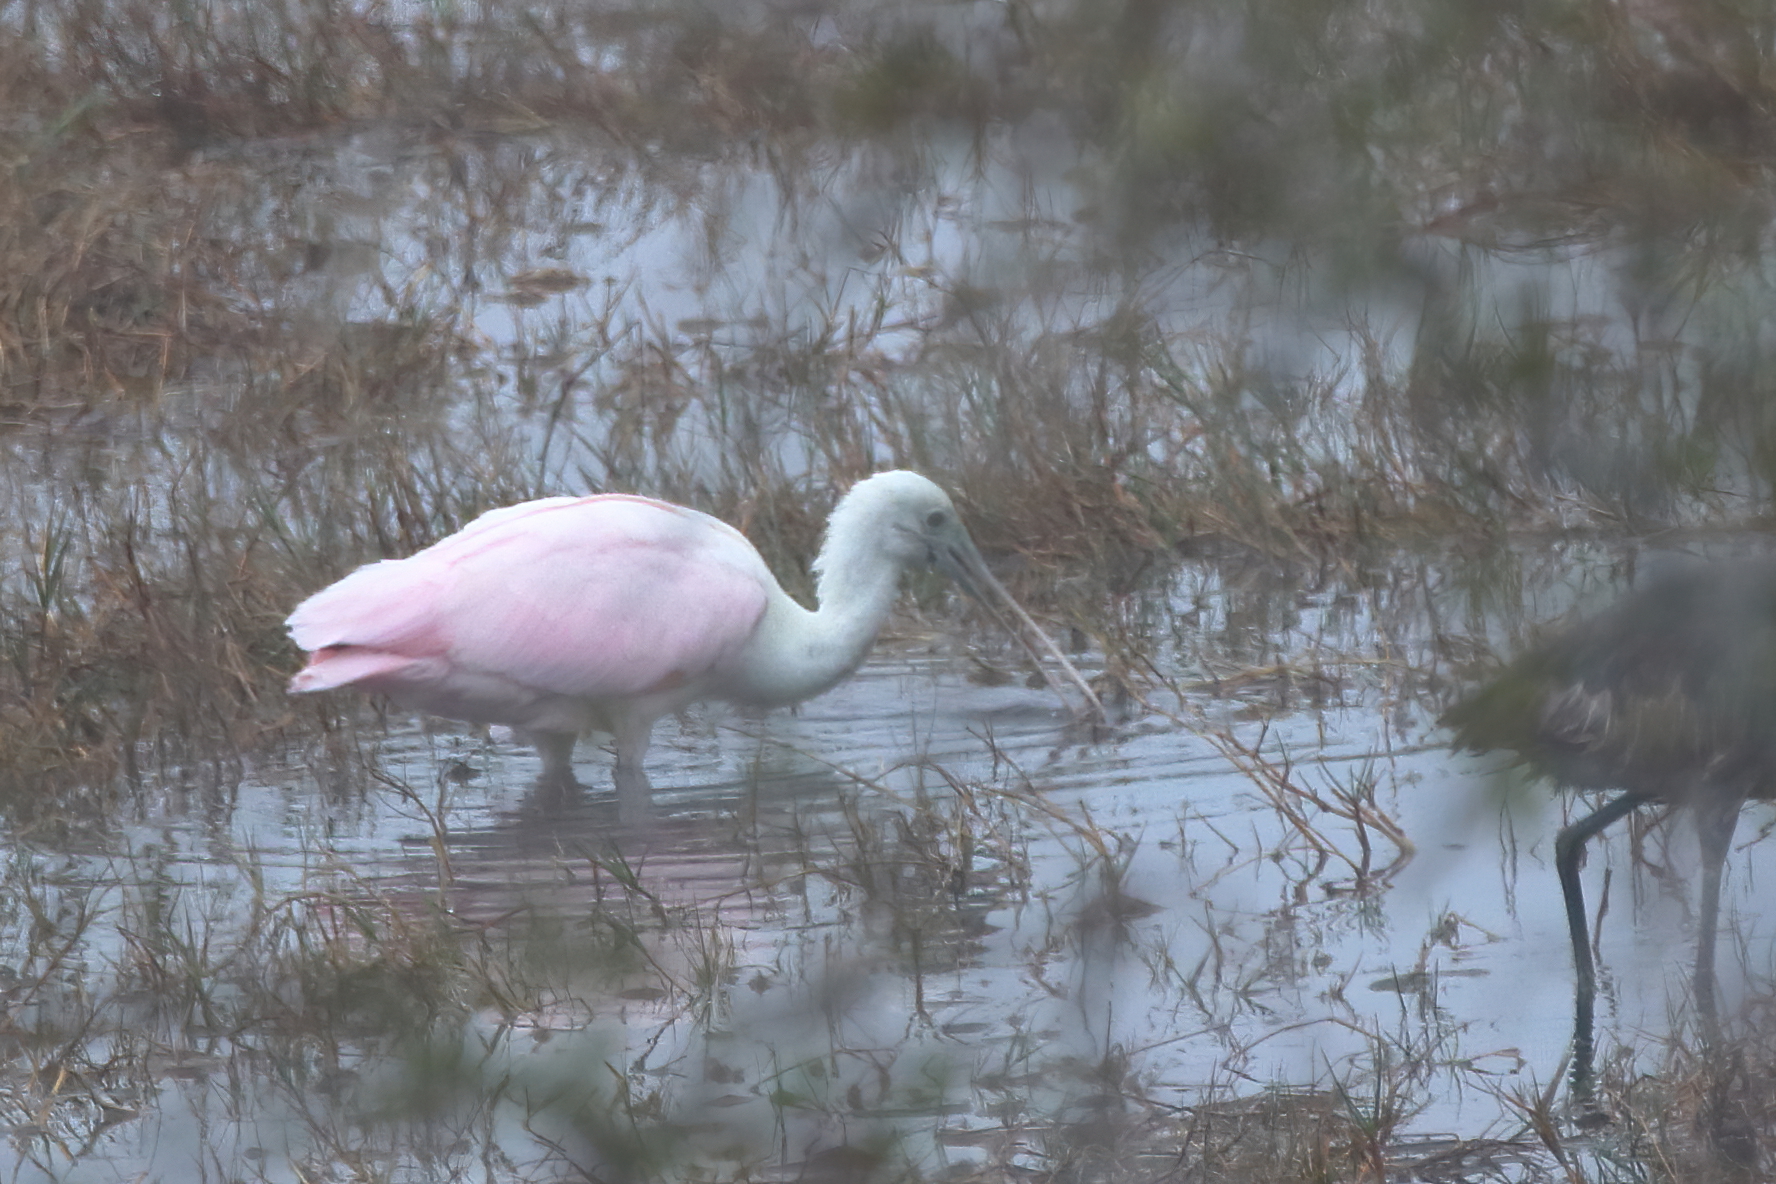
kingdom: Animalia
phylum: Chordata
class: Aves
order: Pelecaniformes
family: Threskiornithidae
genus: Platalea
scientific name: Platalea ajaja
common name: Roseate spoonbill
